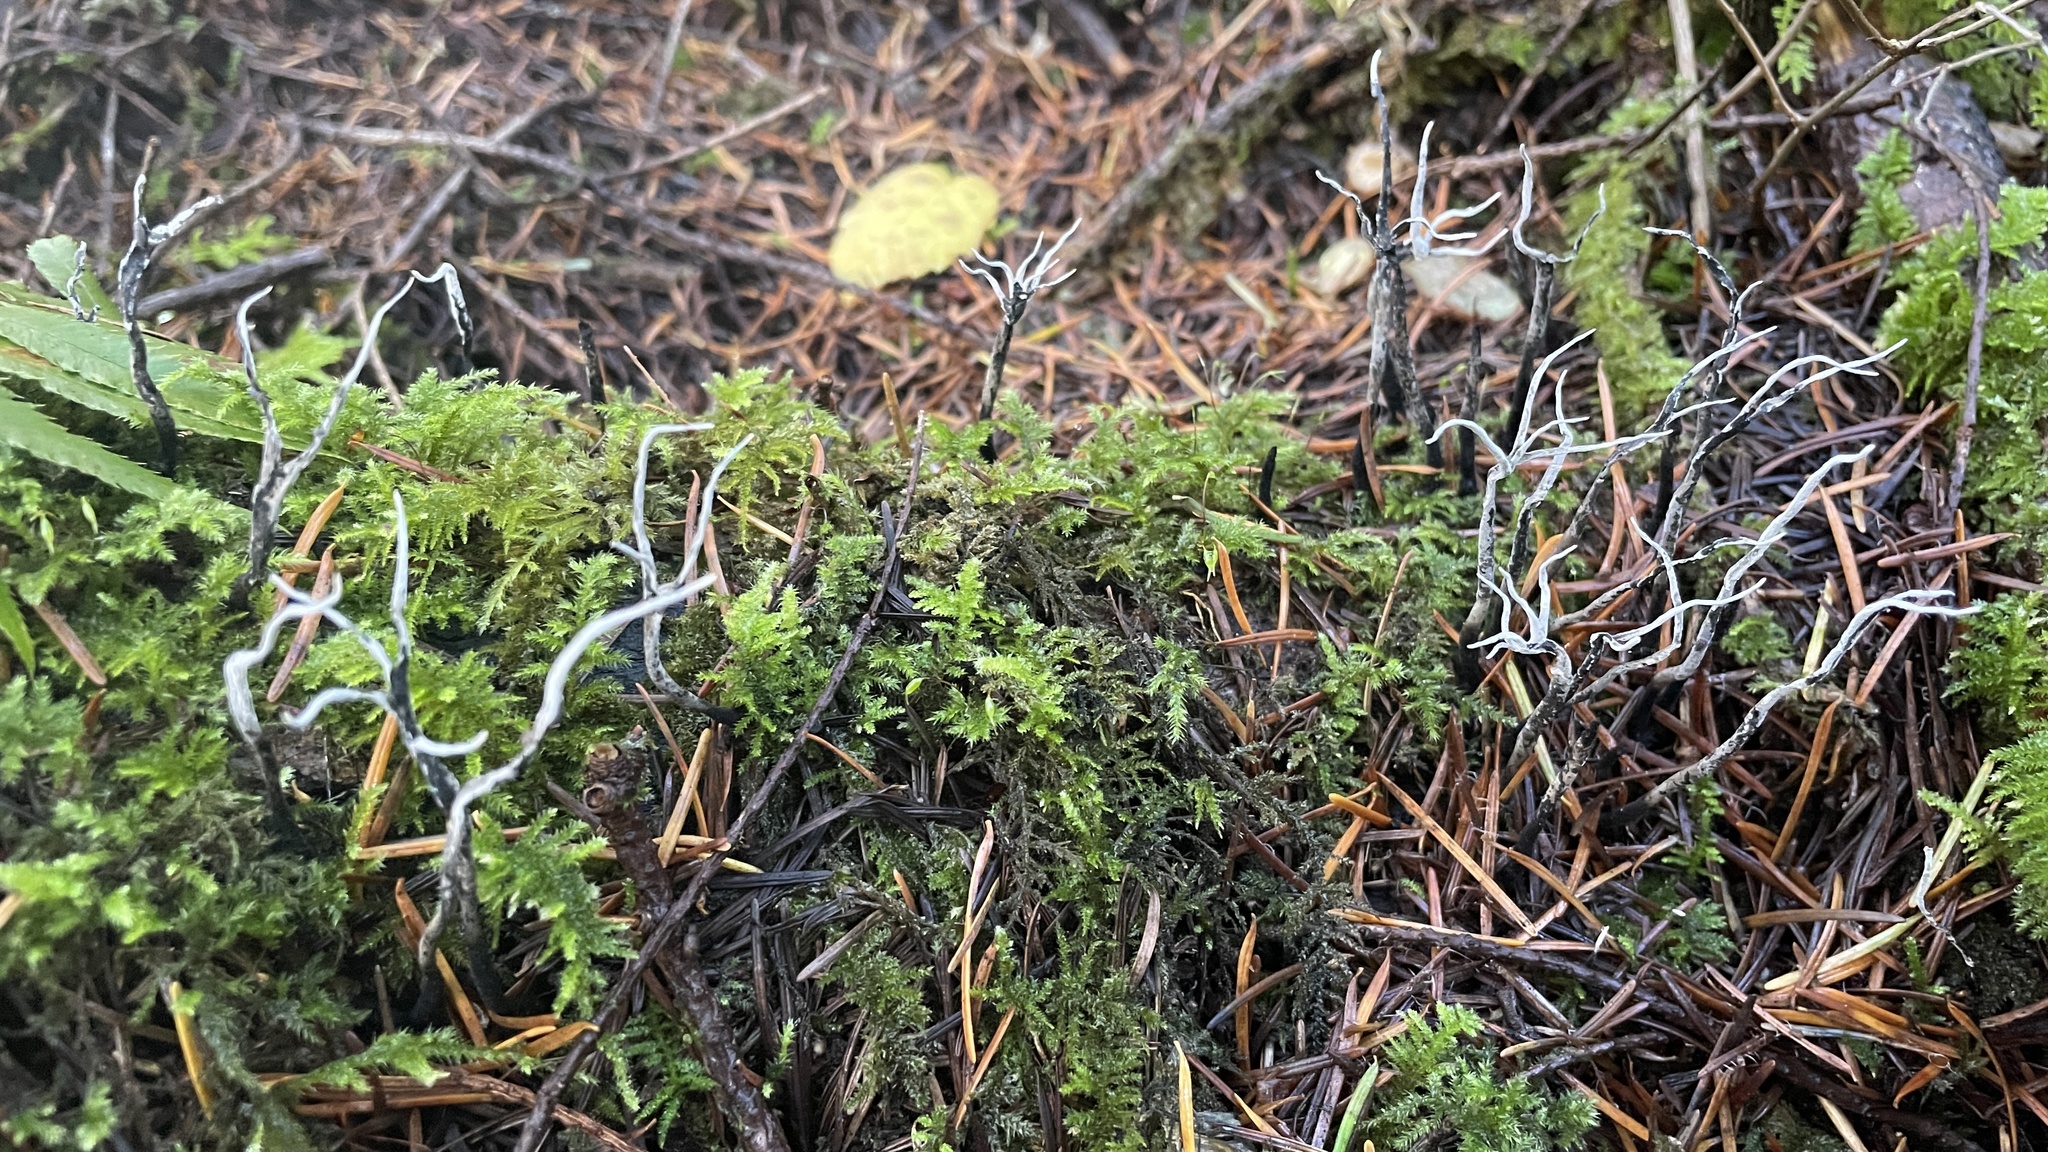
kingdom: Fungi
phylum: Ascomycota
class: Sordariomycetes
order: Xylariales
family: Xylariaceae
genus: Xylaria
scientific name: Xylaria hypoxylon
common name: Candle-snuff fungus
